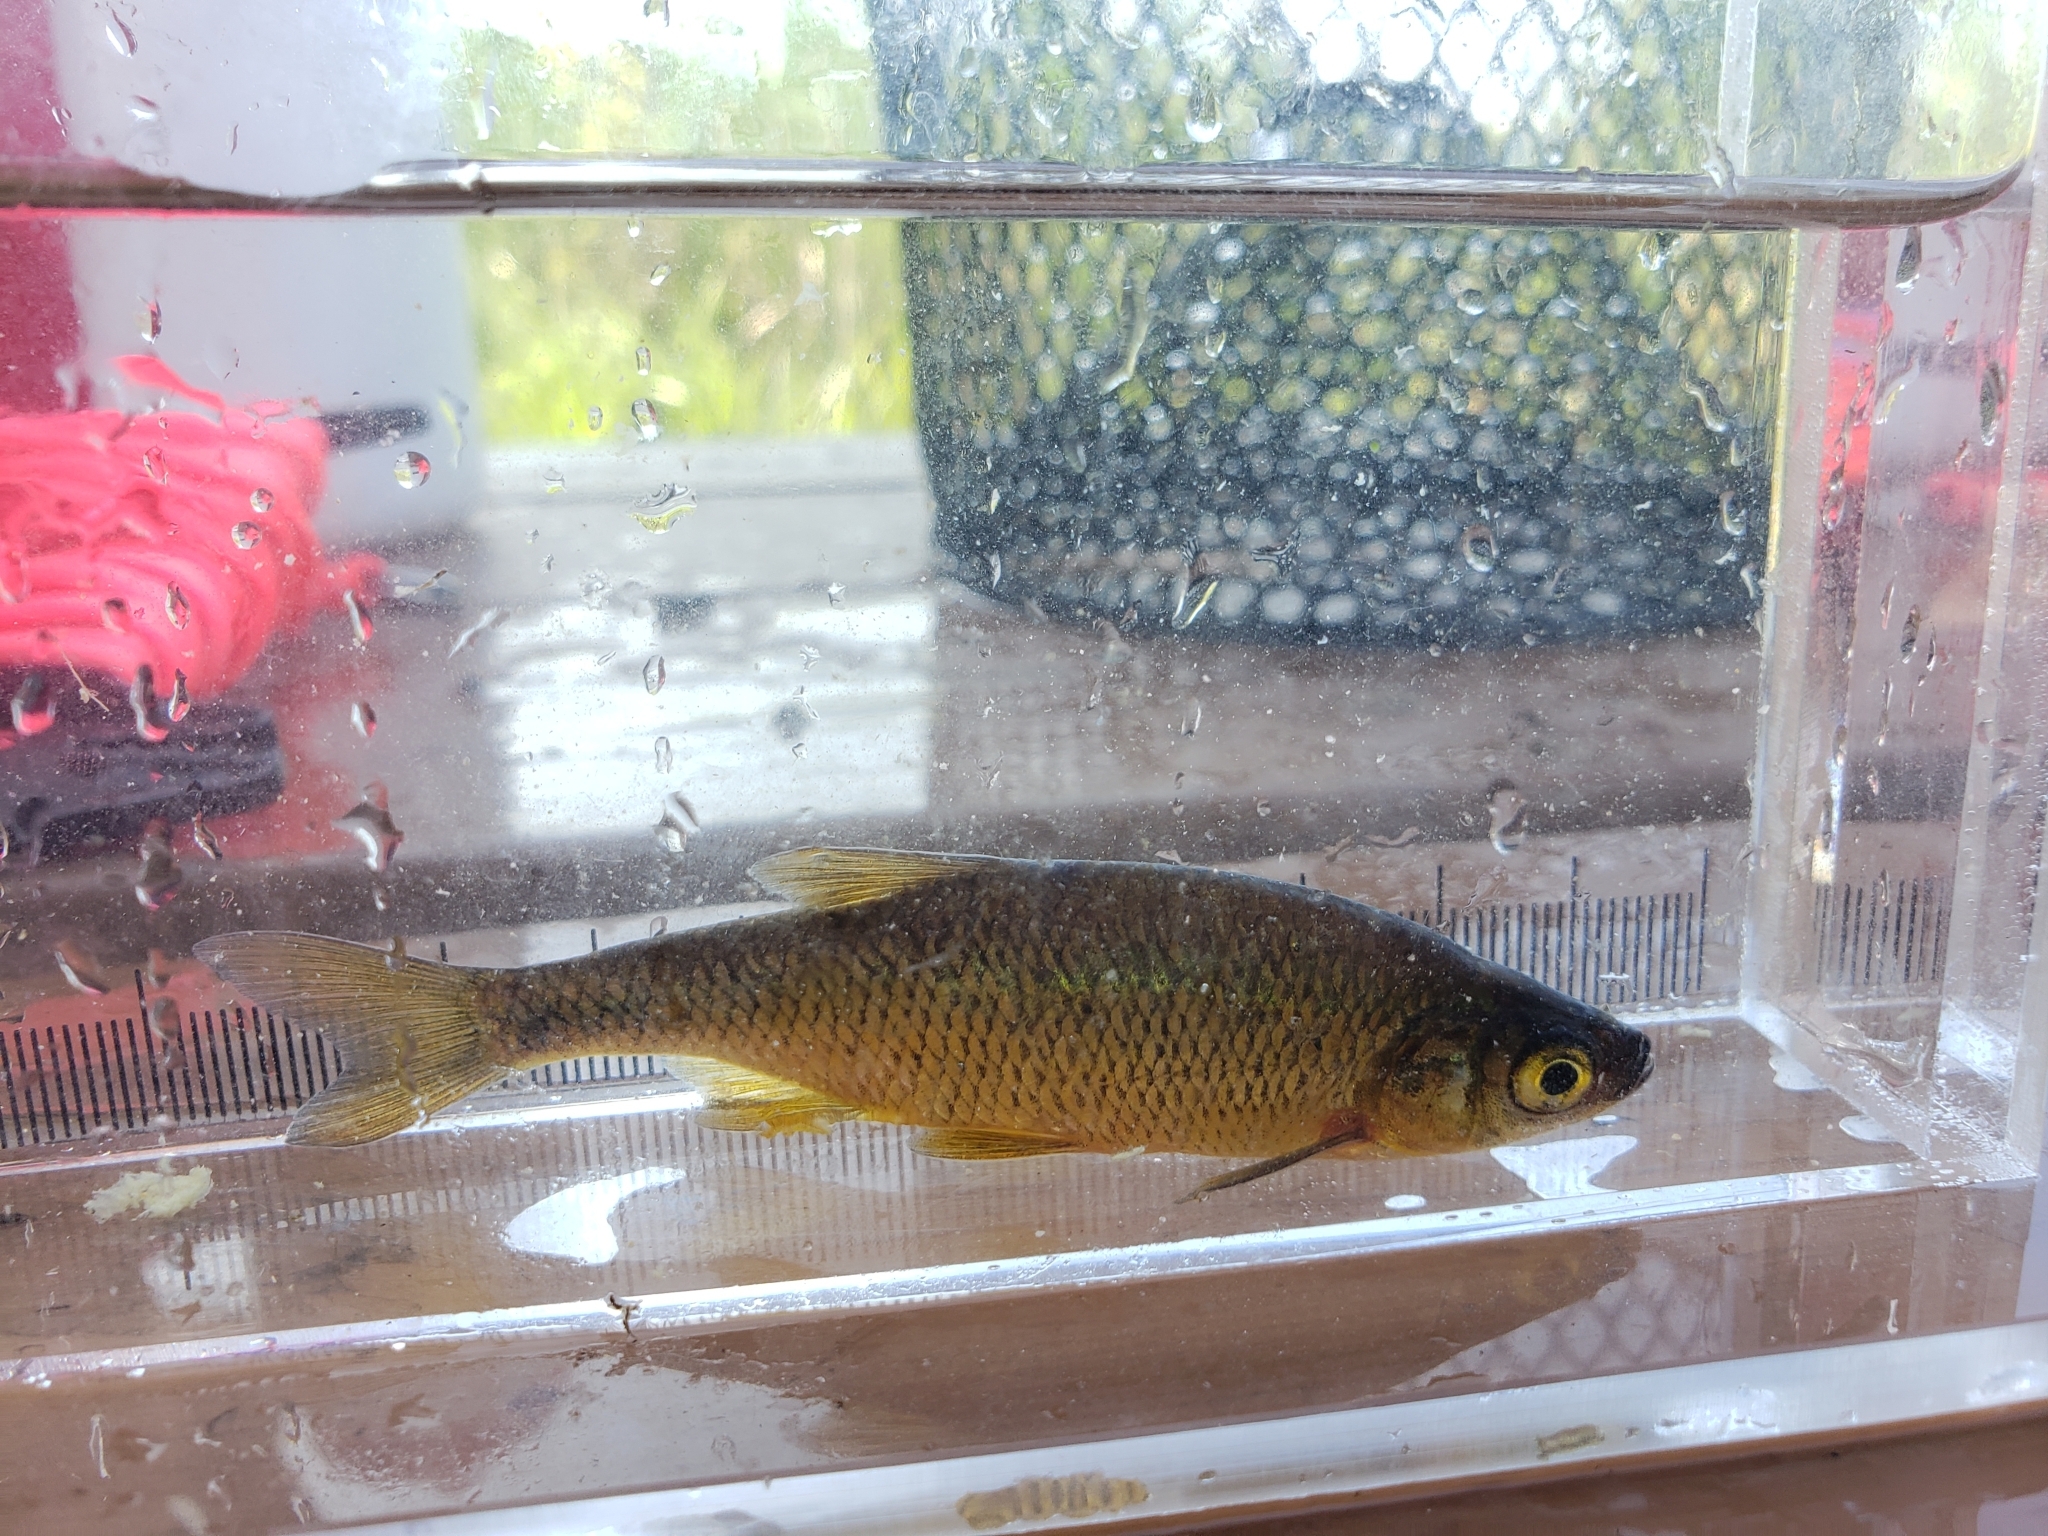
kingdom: Animalia
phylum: Chordata
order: Cypriniformes
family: Cyprinidae
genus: Notemigonus
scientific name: Notemigonus crysoleucas
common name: Golden shiner
